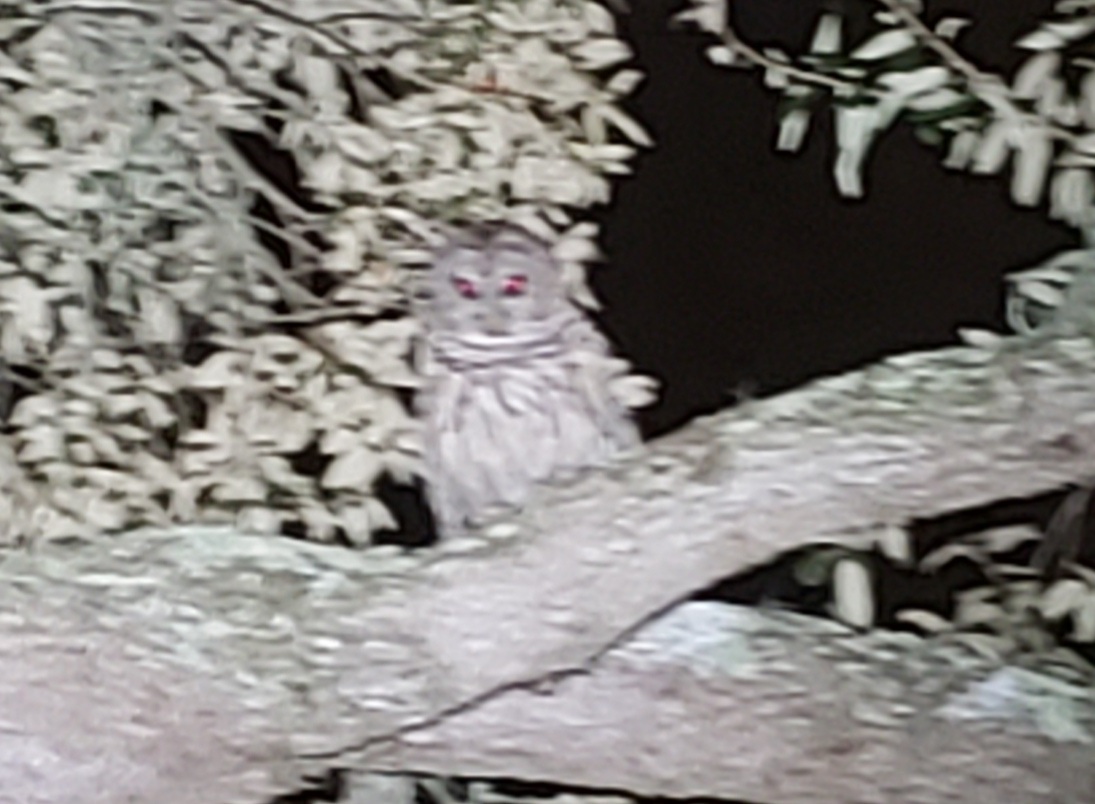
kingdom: Animalia
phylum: Chordata
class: Aves
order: Strigiformes
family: Strigidae
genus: Strix
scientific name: Strix varia
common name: Barred owl
